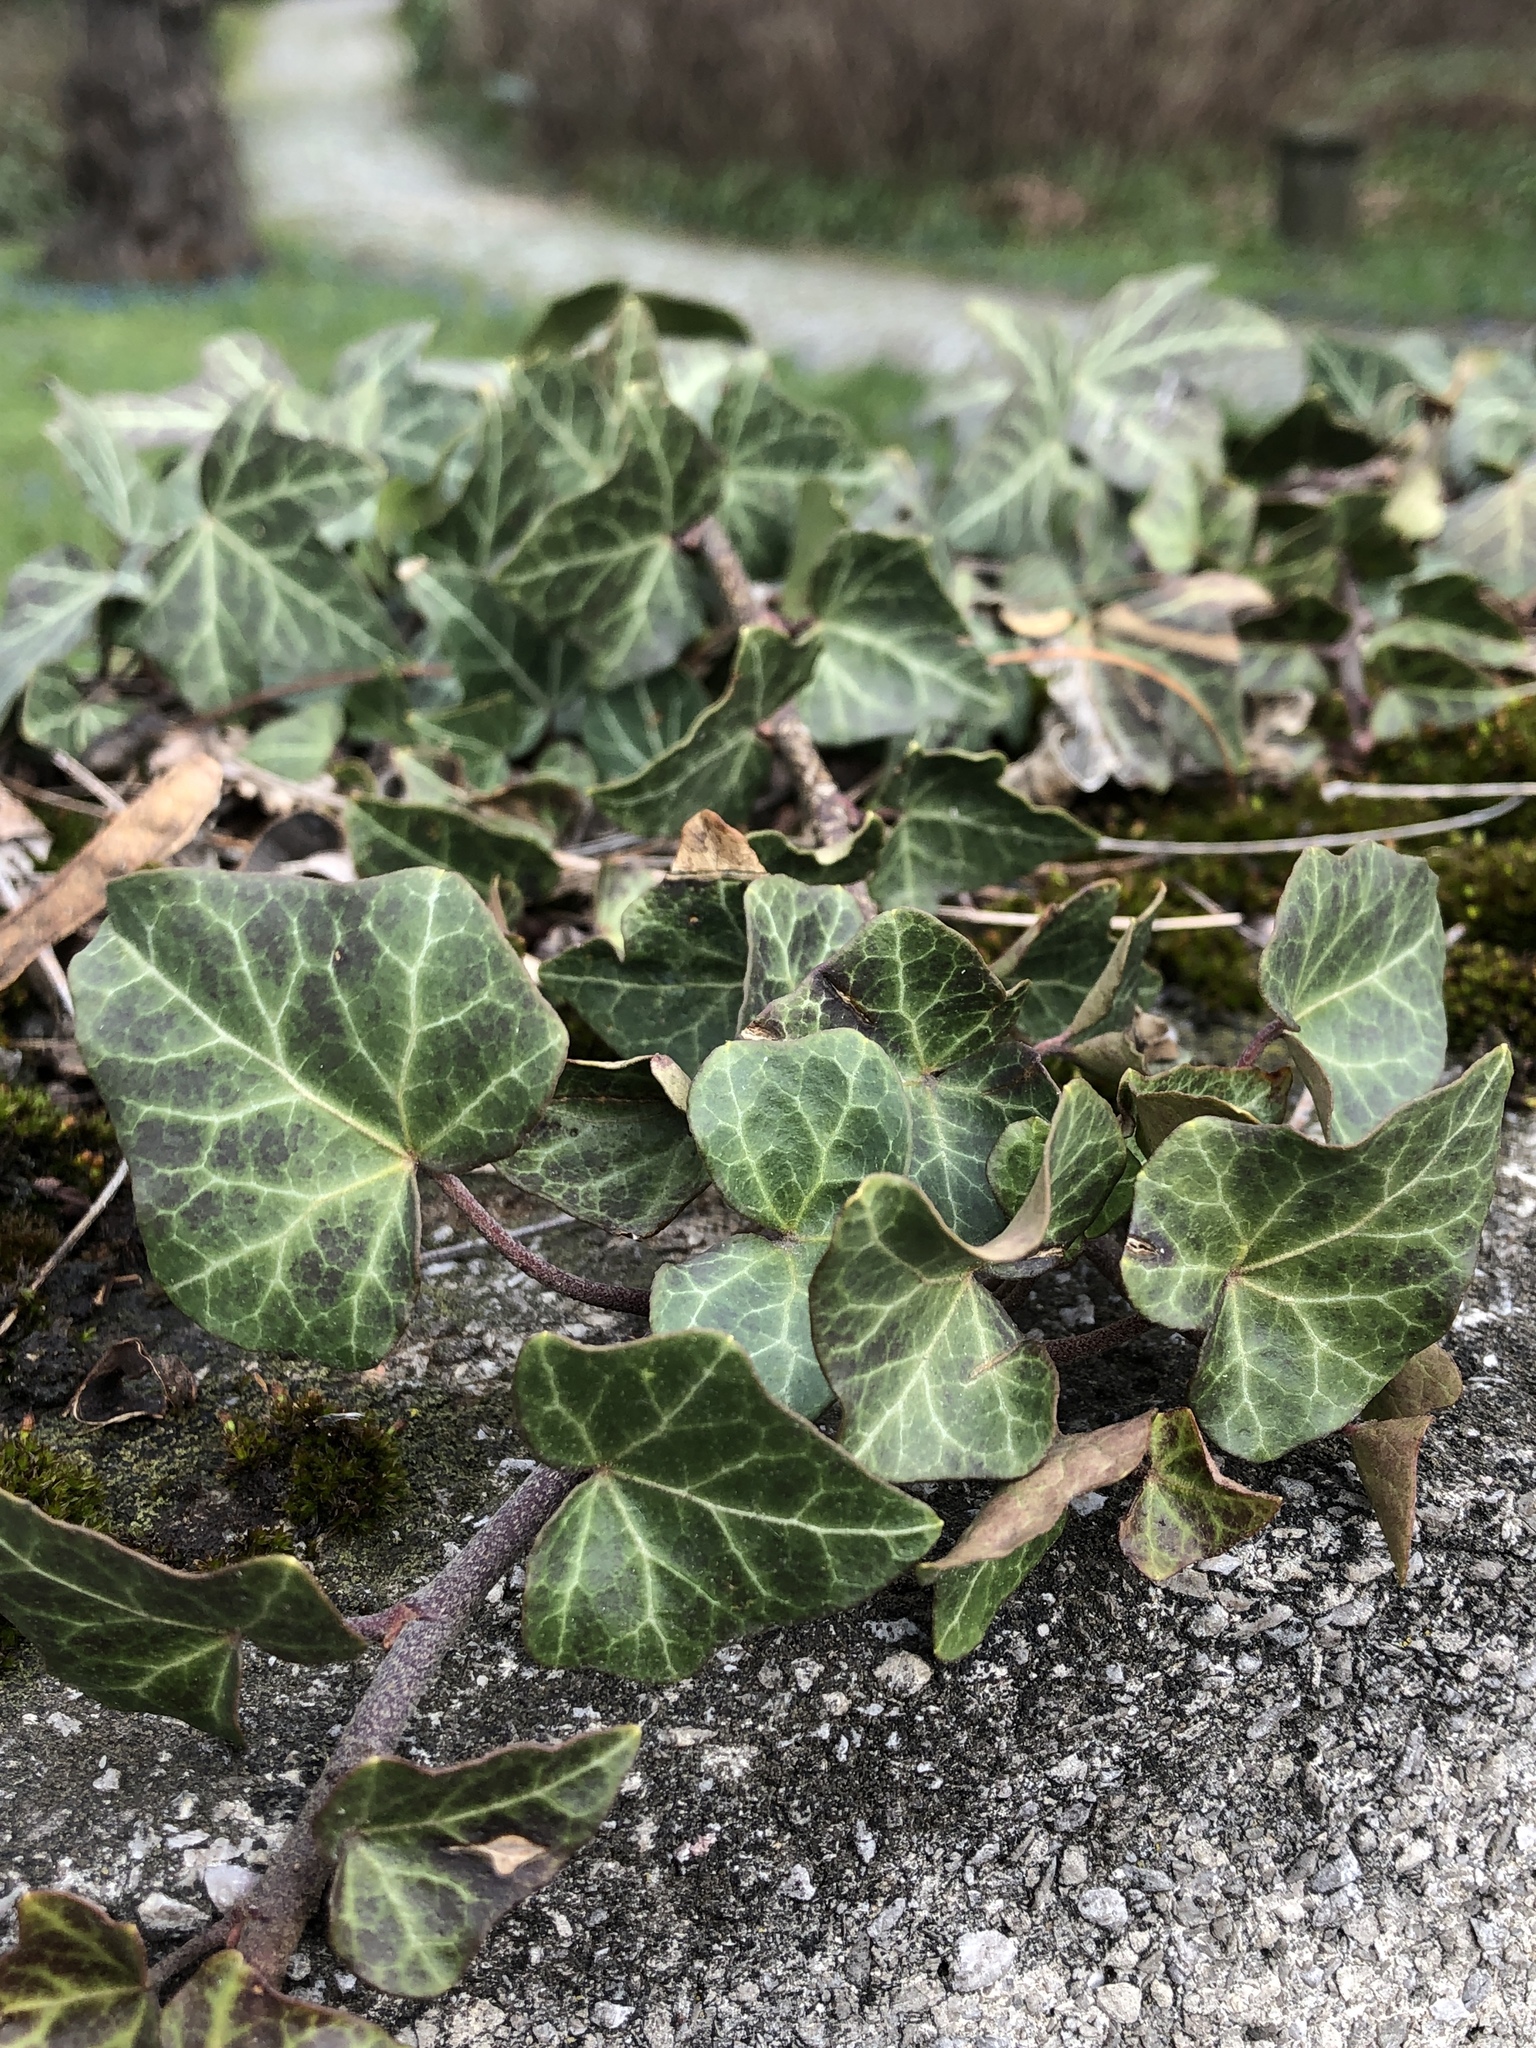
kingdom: Plantae
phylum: Tracheophyta
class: Magnoliopsida
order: Apiales
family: Araliaceae
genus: Hedera
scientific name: Hedera helix
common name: Ivy
